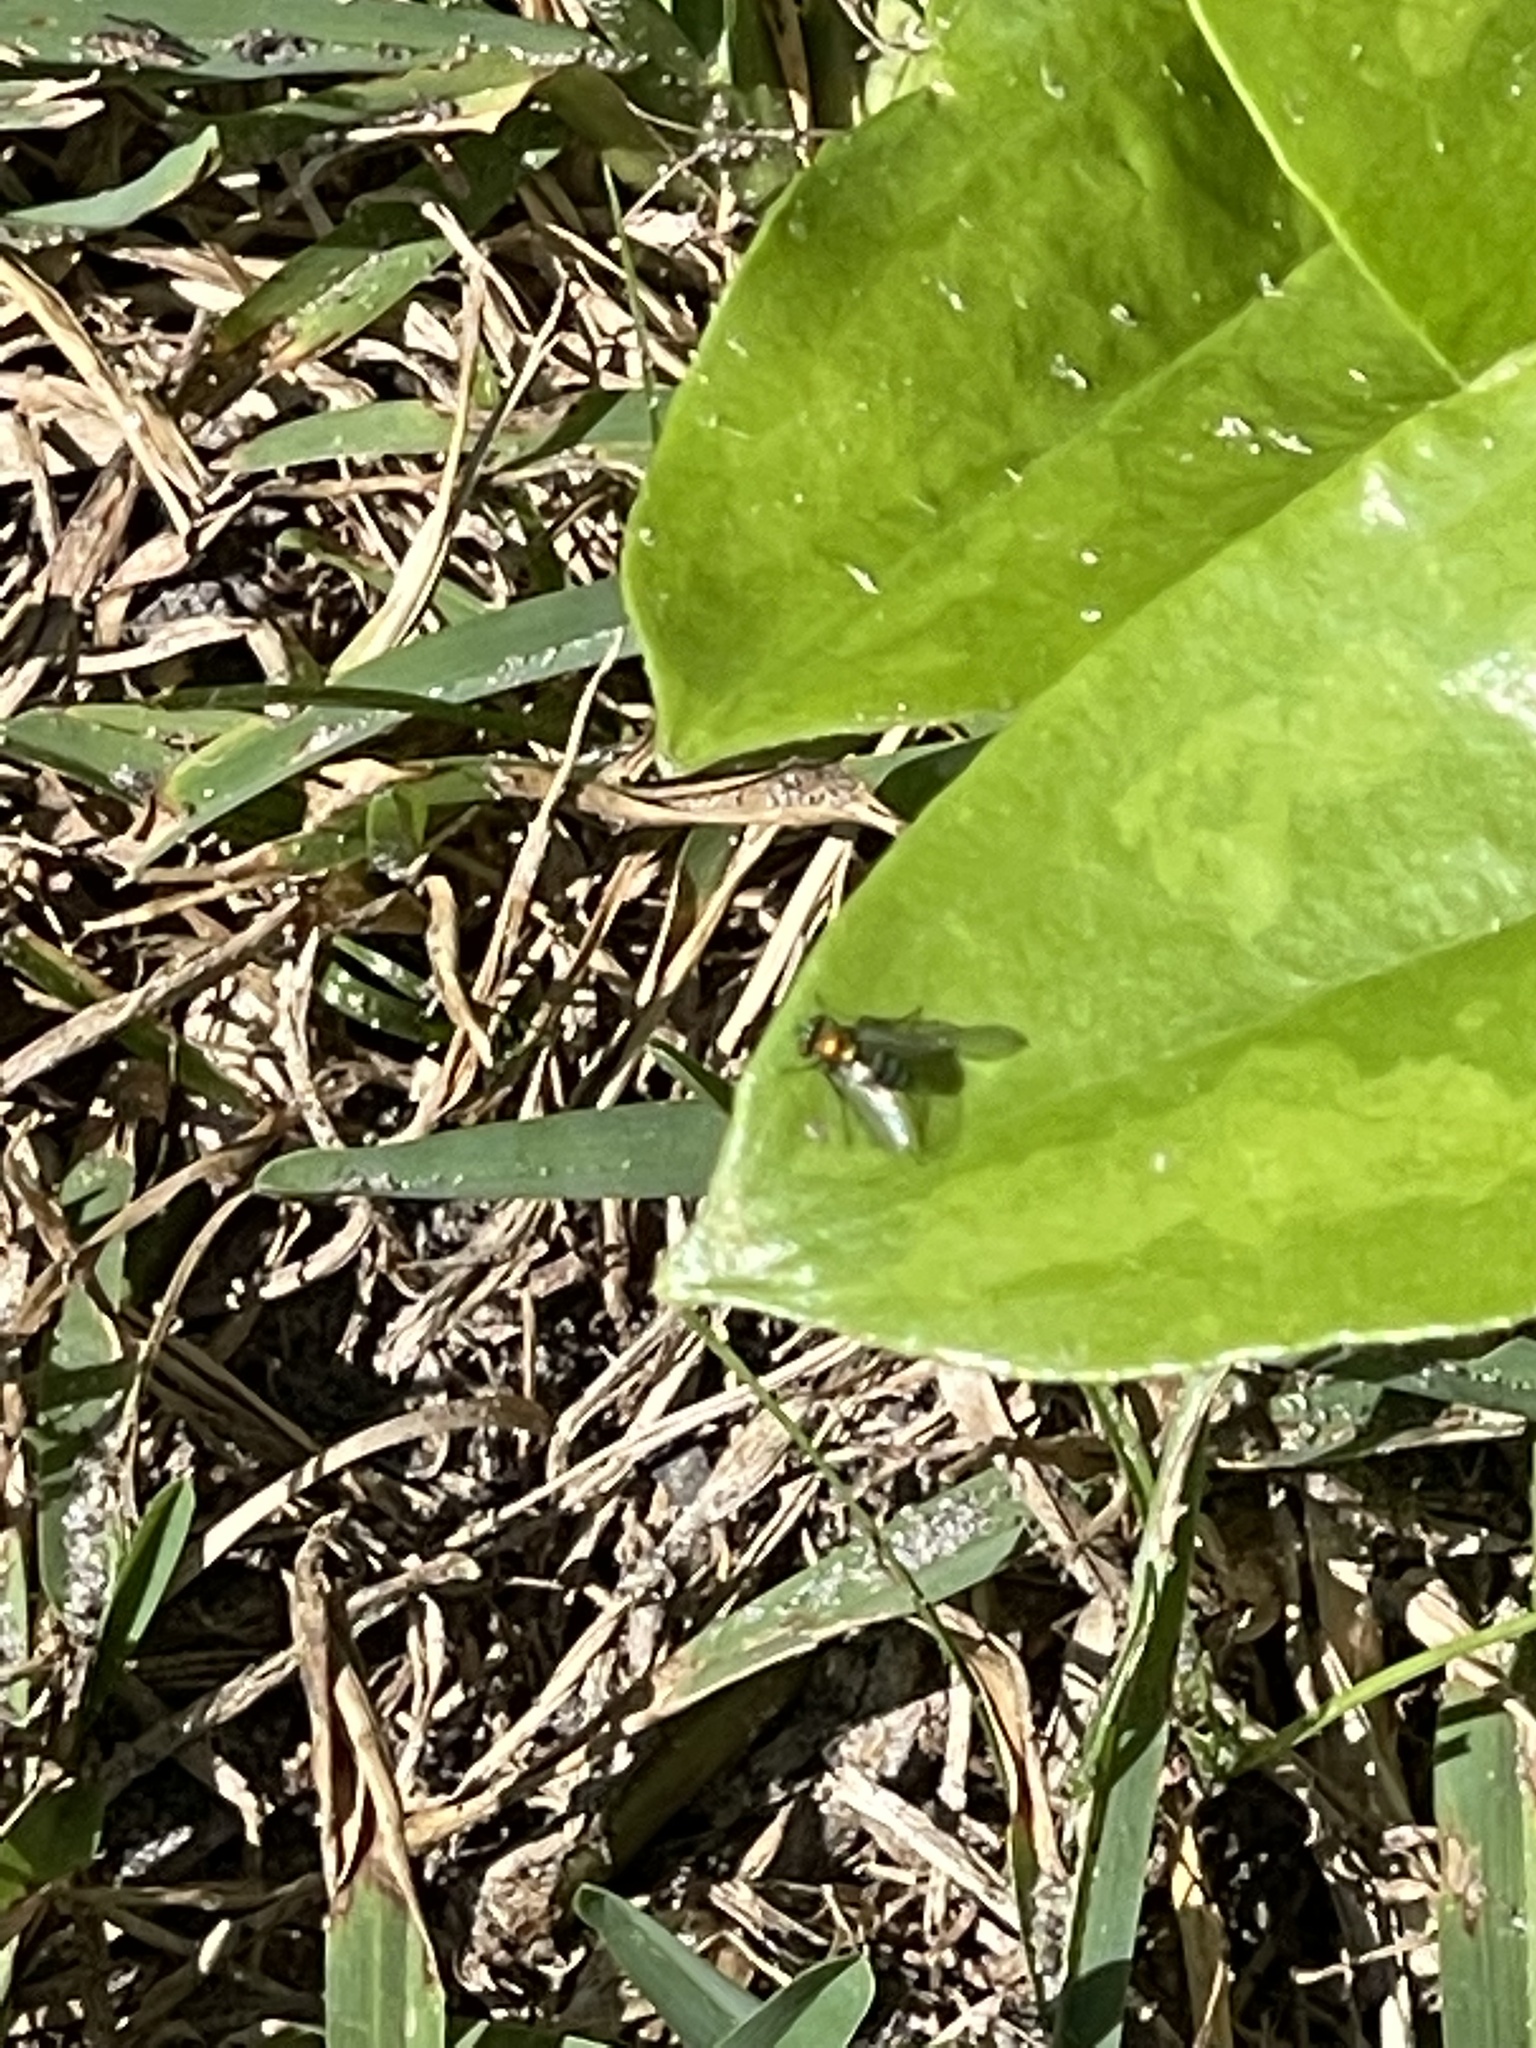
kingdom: Animalia
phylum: Arthropoda
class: Insecta
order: Diptera
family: Dolichopodidae
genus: Condylostylus
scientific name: Condylostylus
